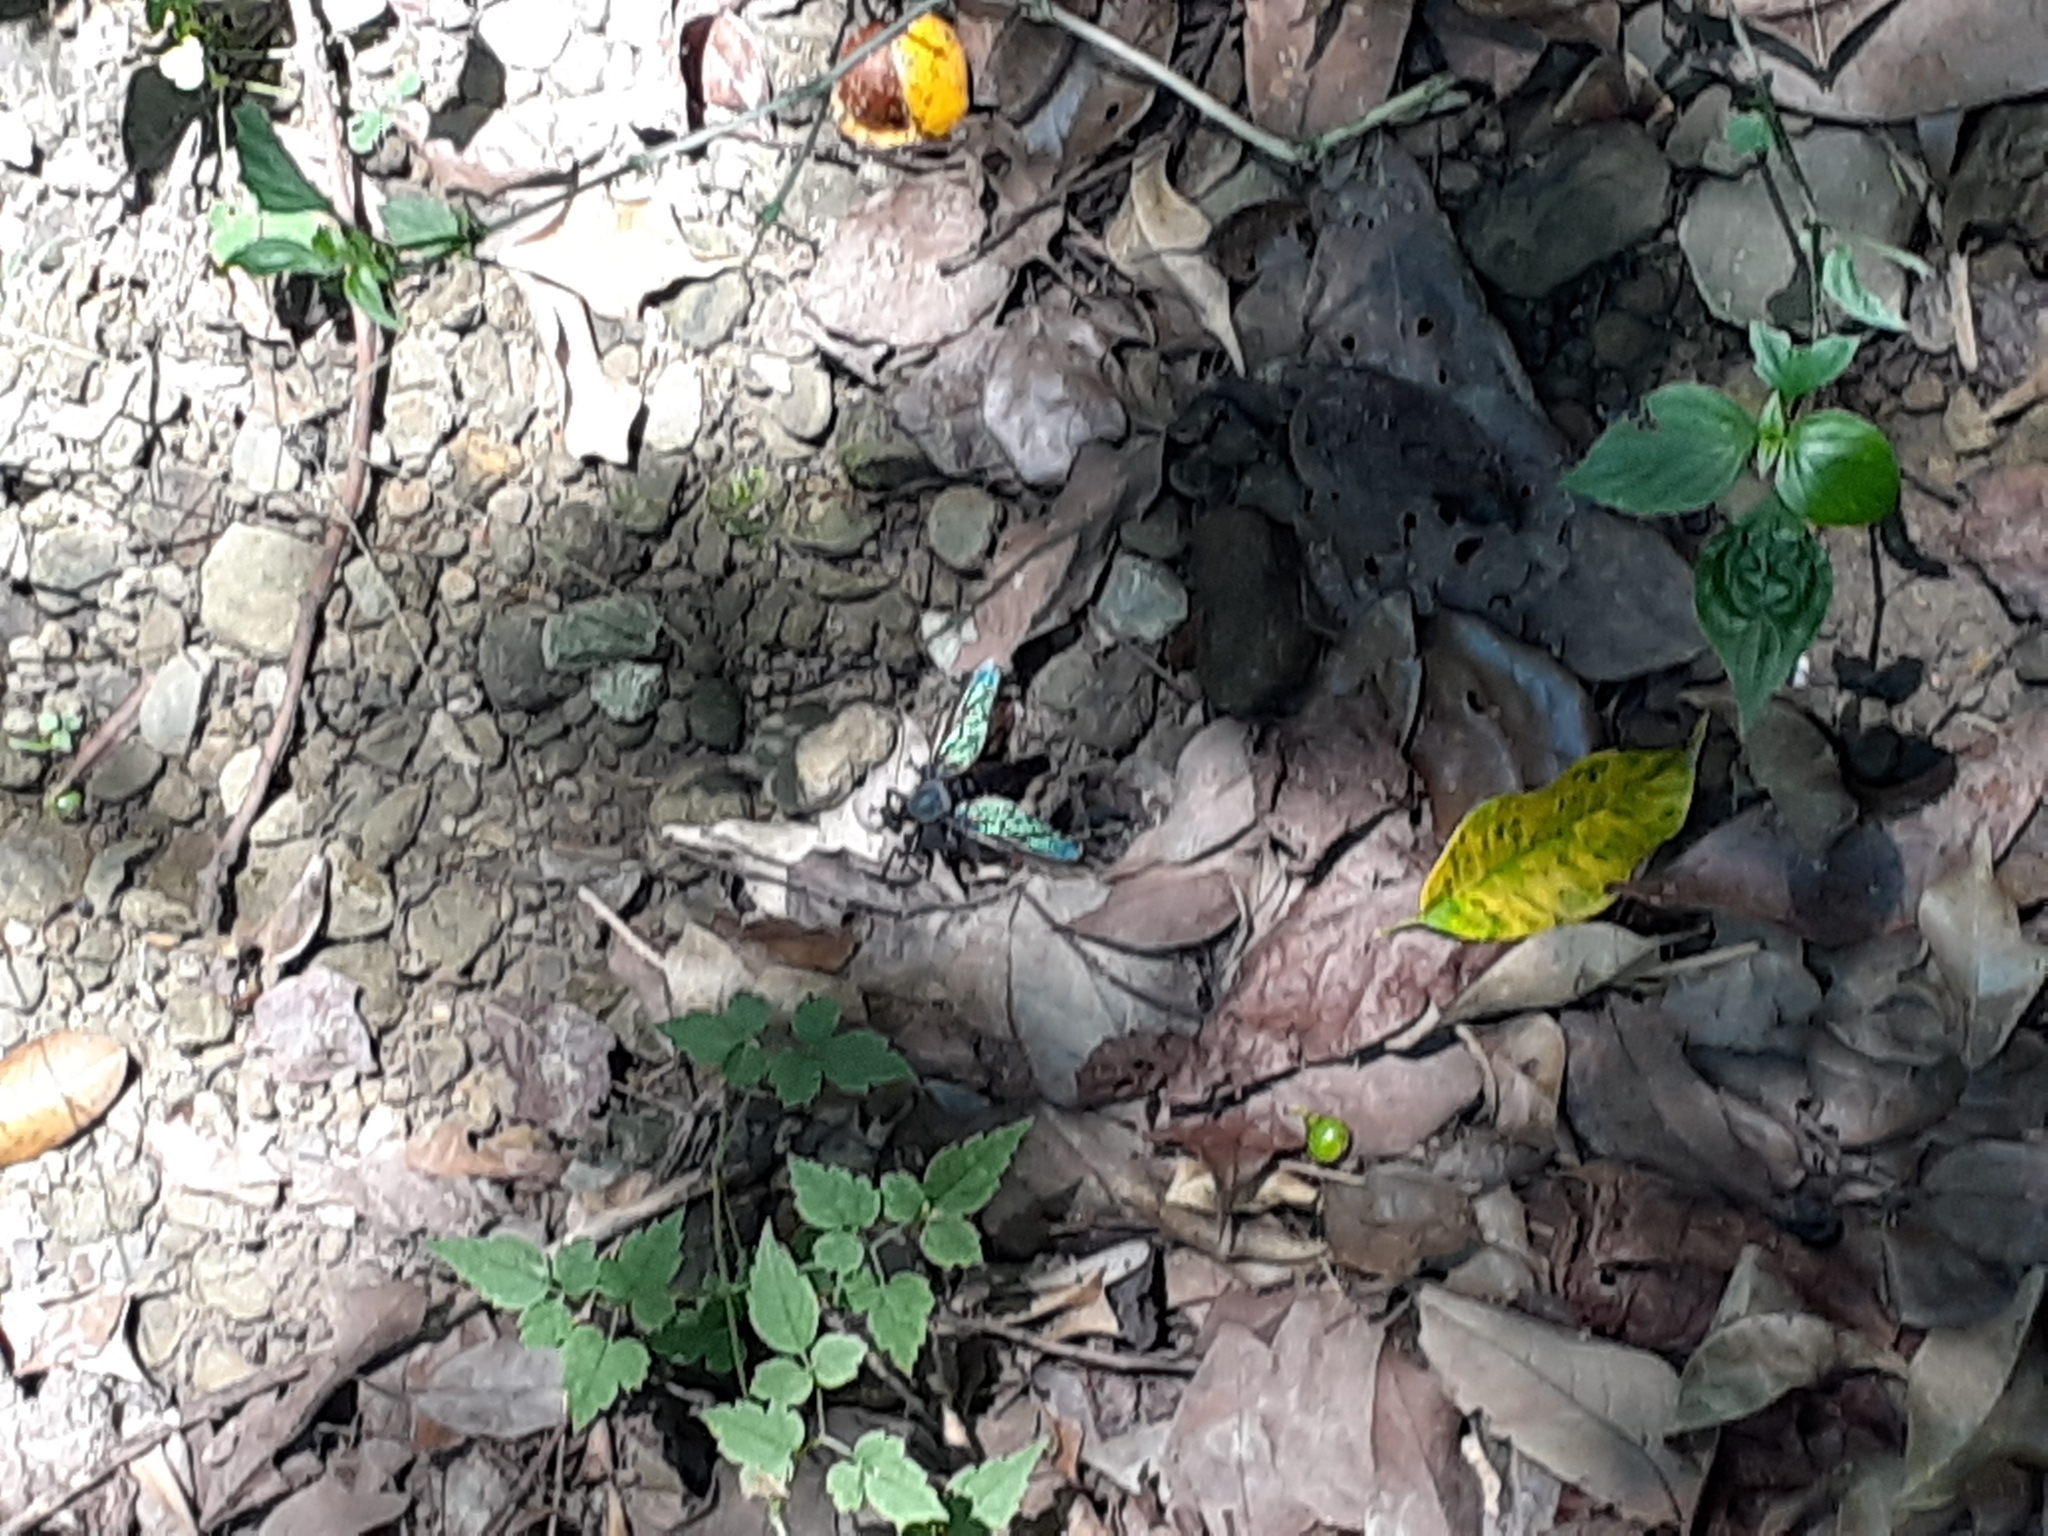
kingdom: Animalia
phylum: Arthropoda
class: Insecta
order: Diptera
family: Asilidae
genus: Microstylum
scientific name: Microstylum oberthurii
